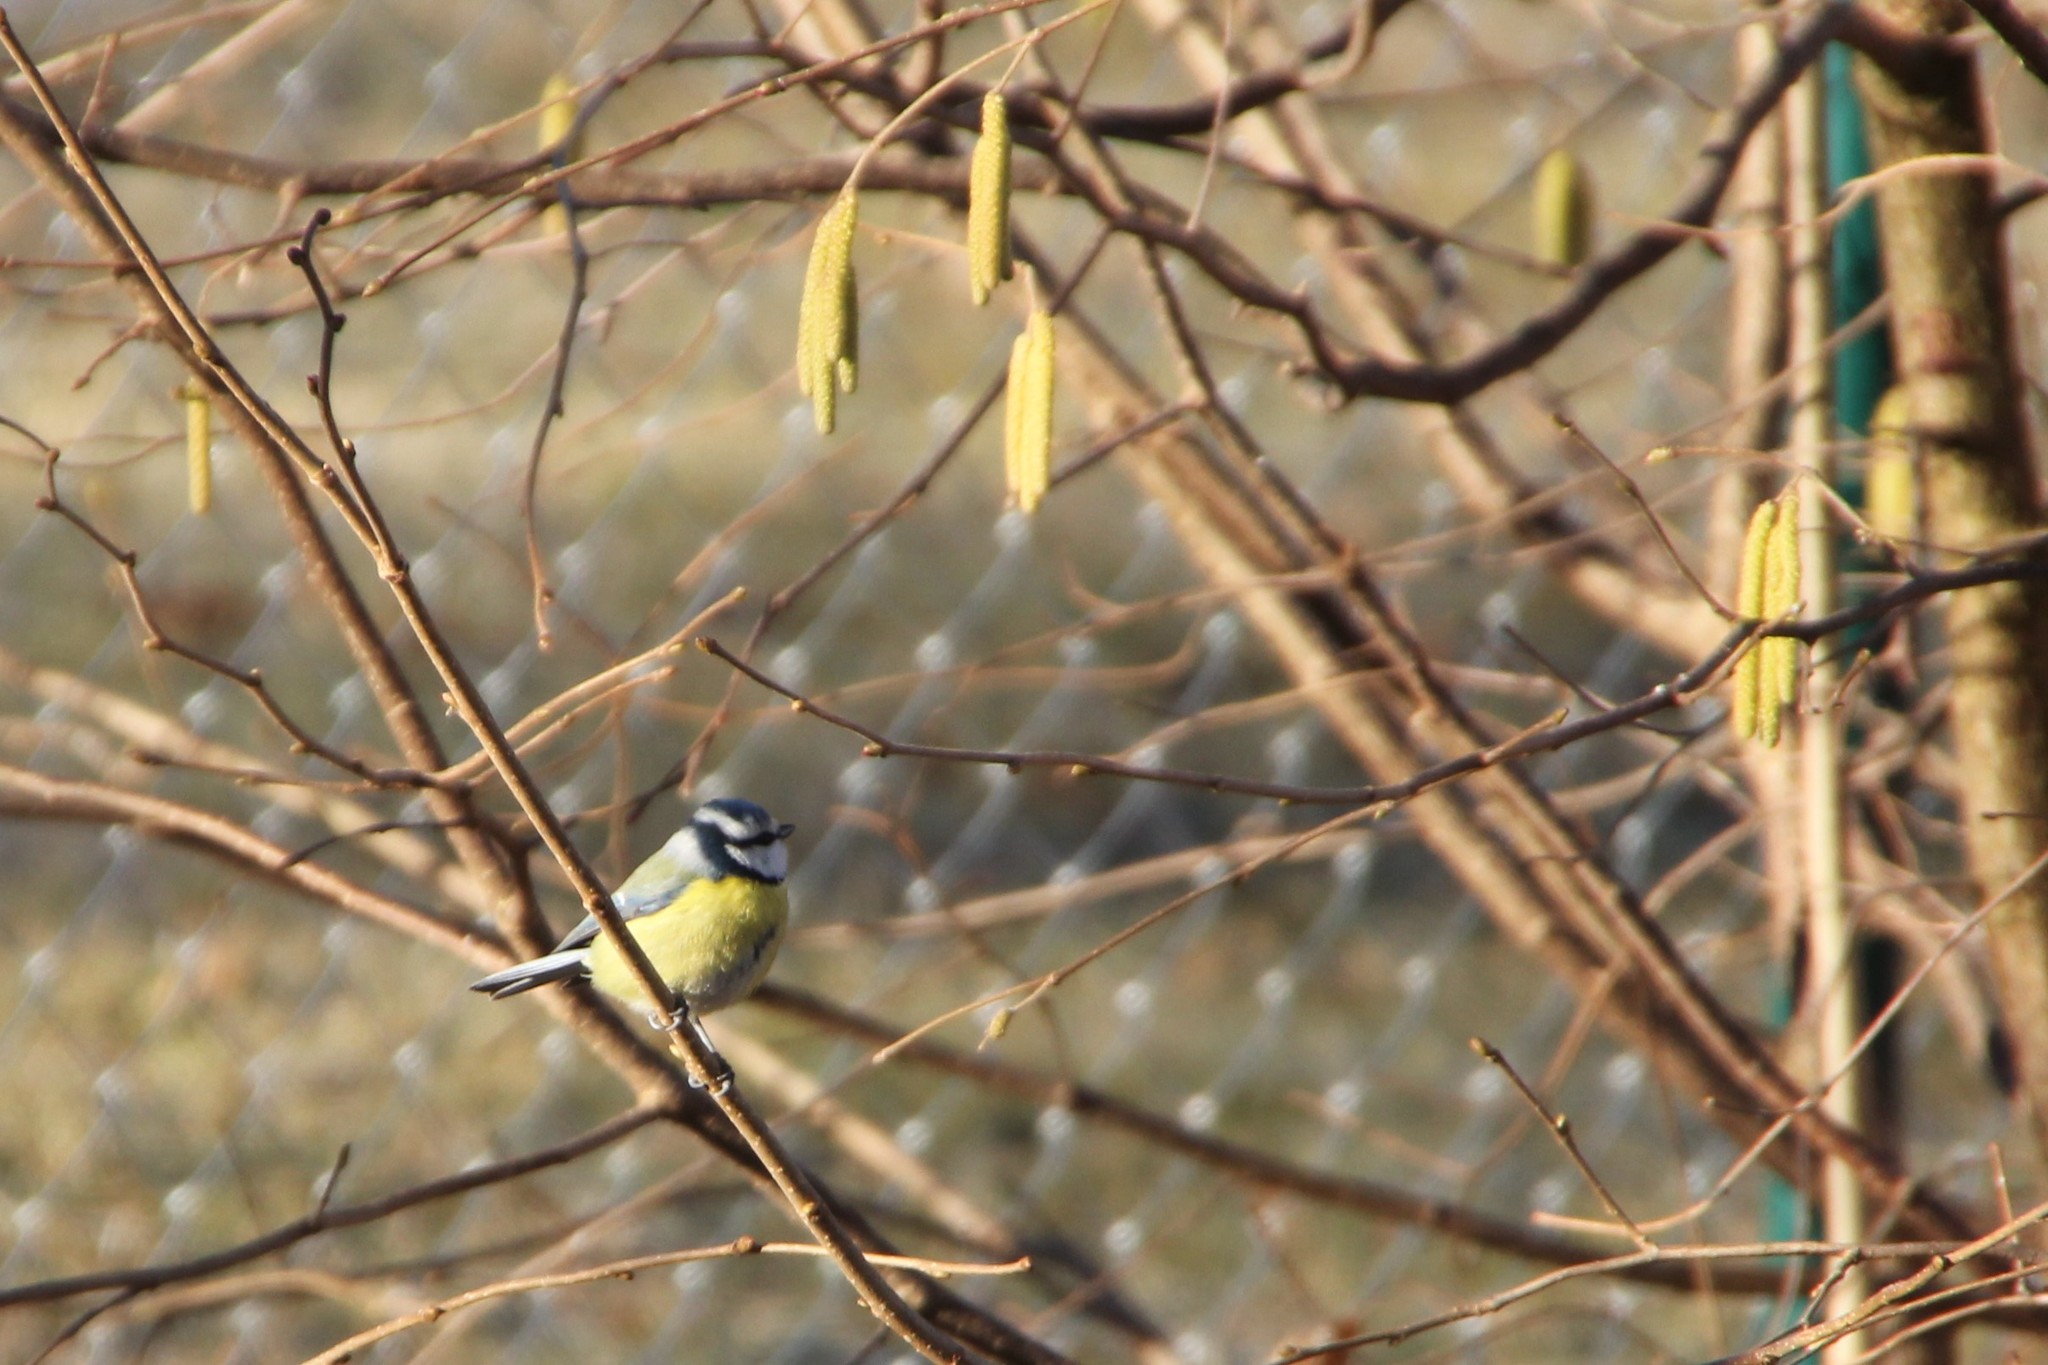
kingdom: Animalia
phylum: Chordata
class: Aves
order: Passeriformes
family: Paridae
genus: Cyanistes
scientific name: Cyanistes caeruleus
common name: Eurasian blue tit
